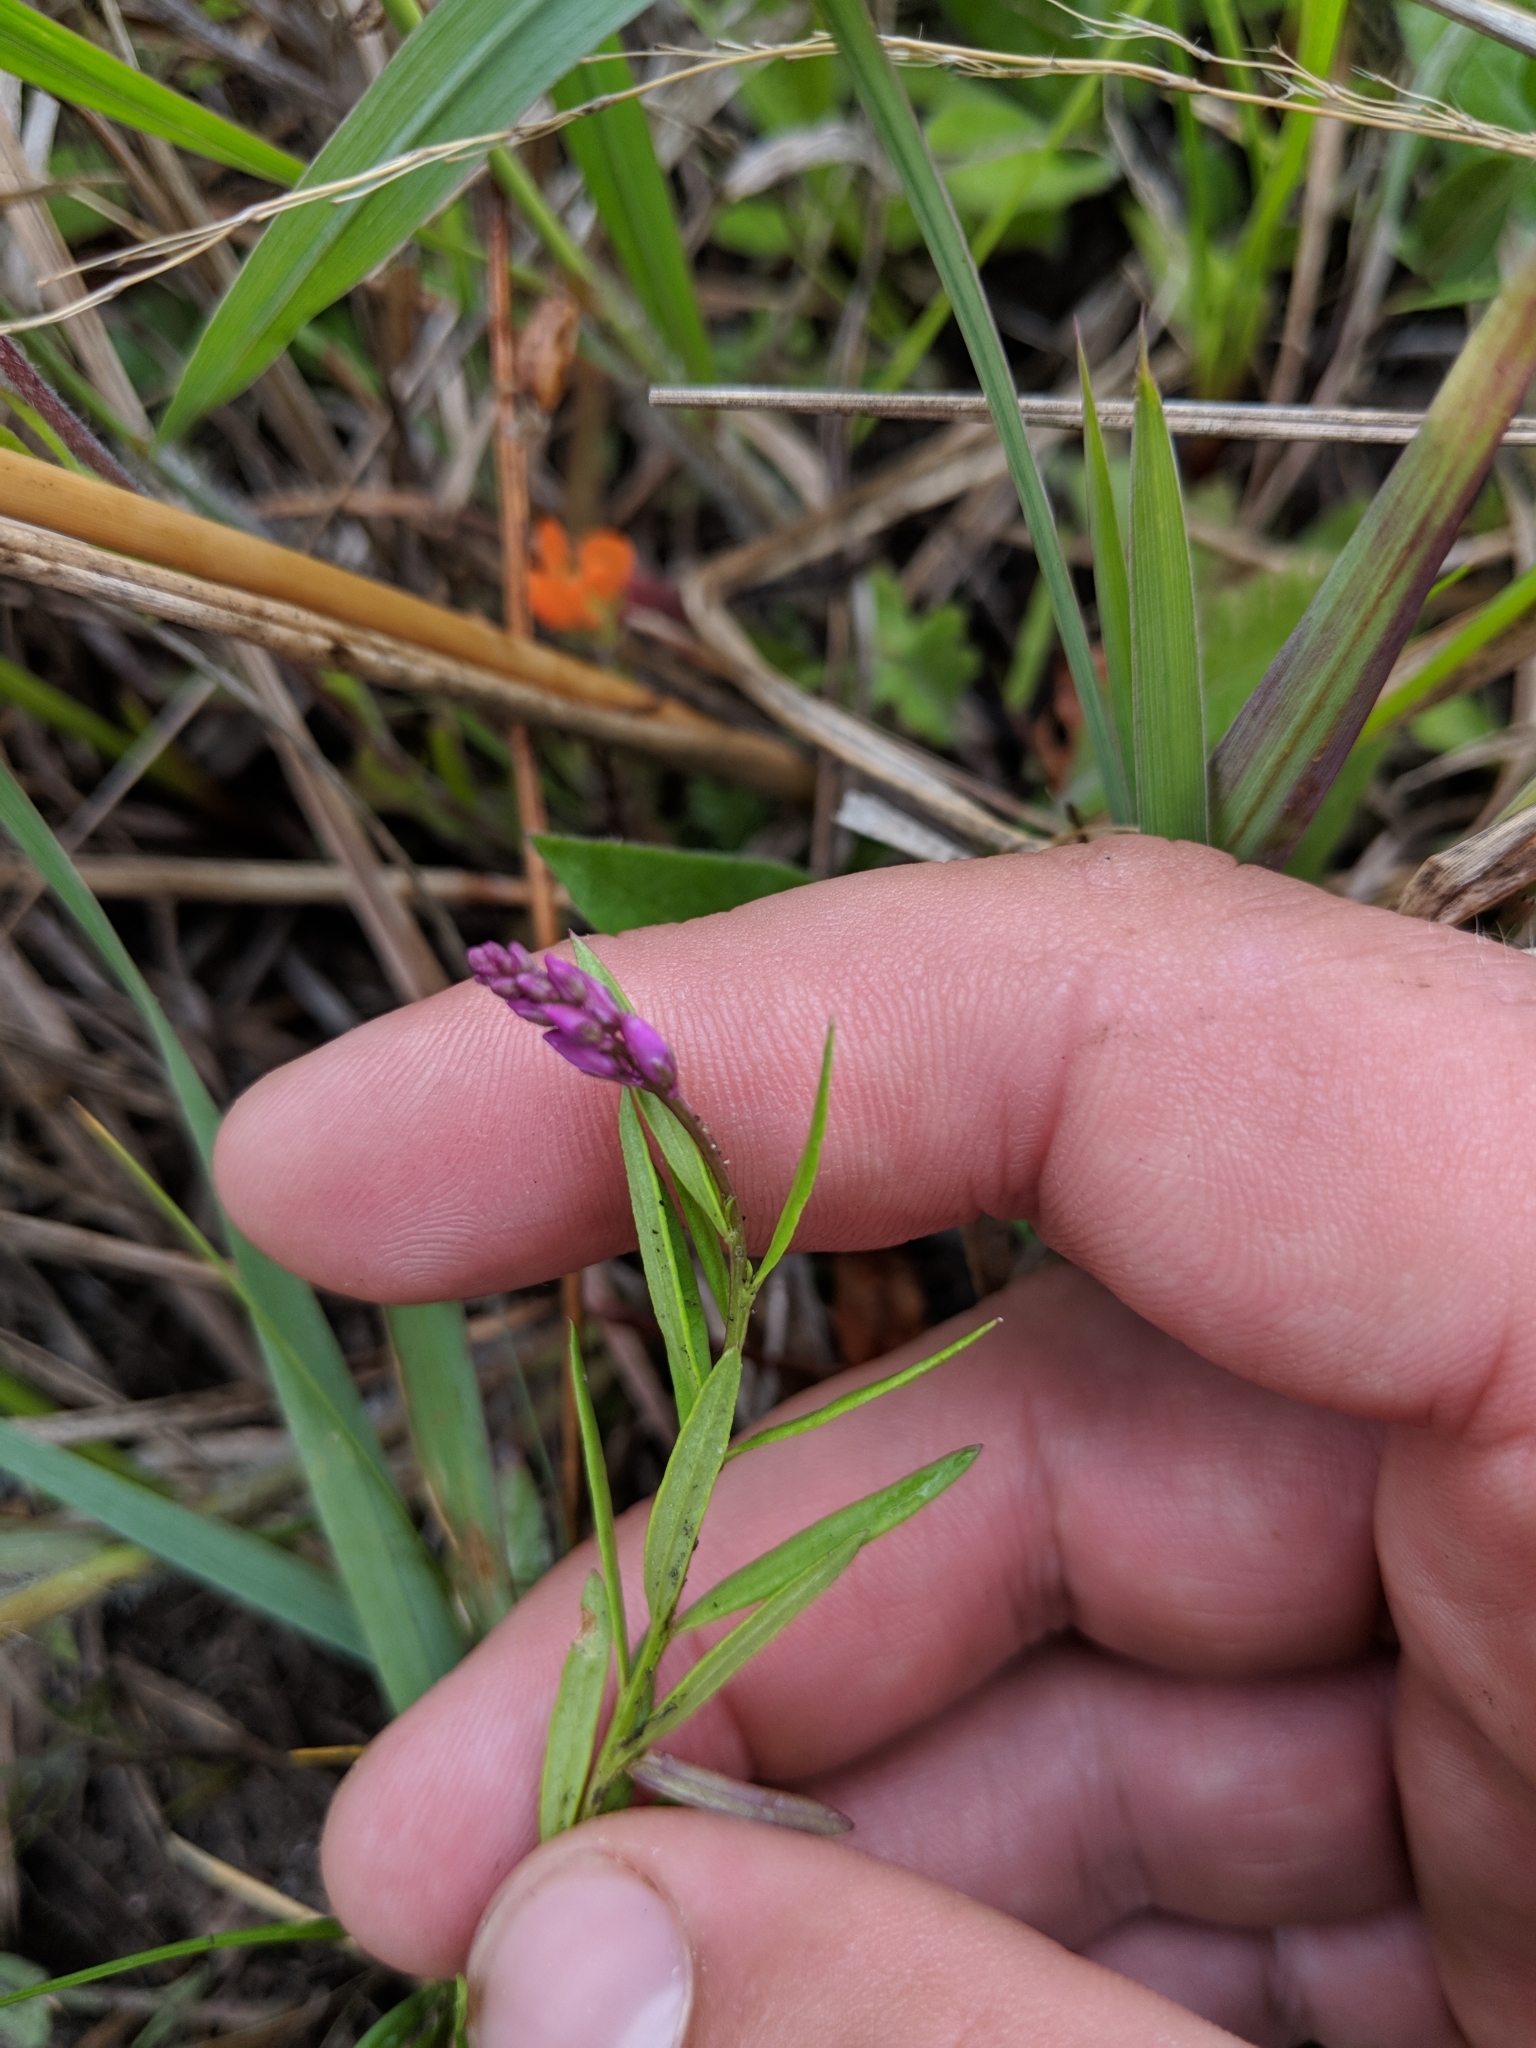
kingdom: Plantae
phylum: Tracheophyta
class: Magnoliopsida
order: Fabales
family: Polygalaceae
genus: Polygala
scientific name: Polygala polygama
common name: Bitter milkwort
